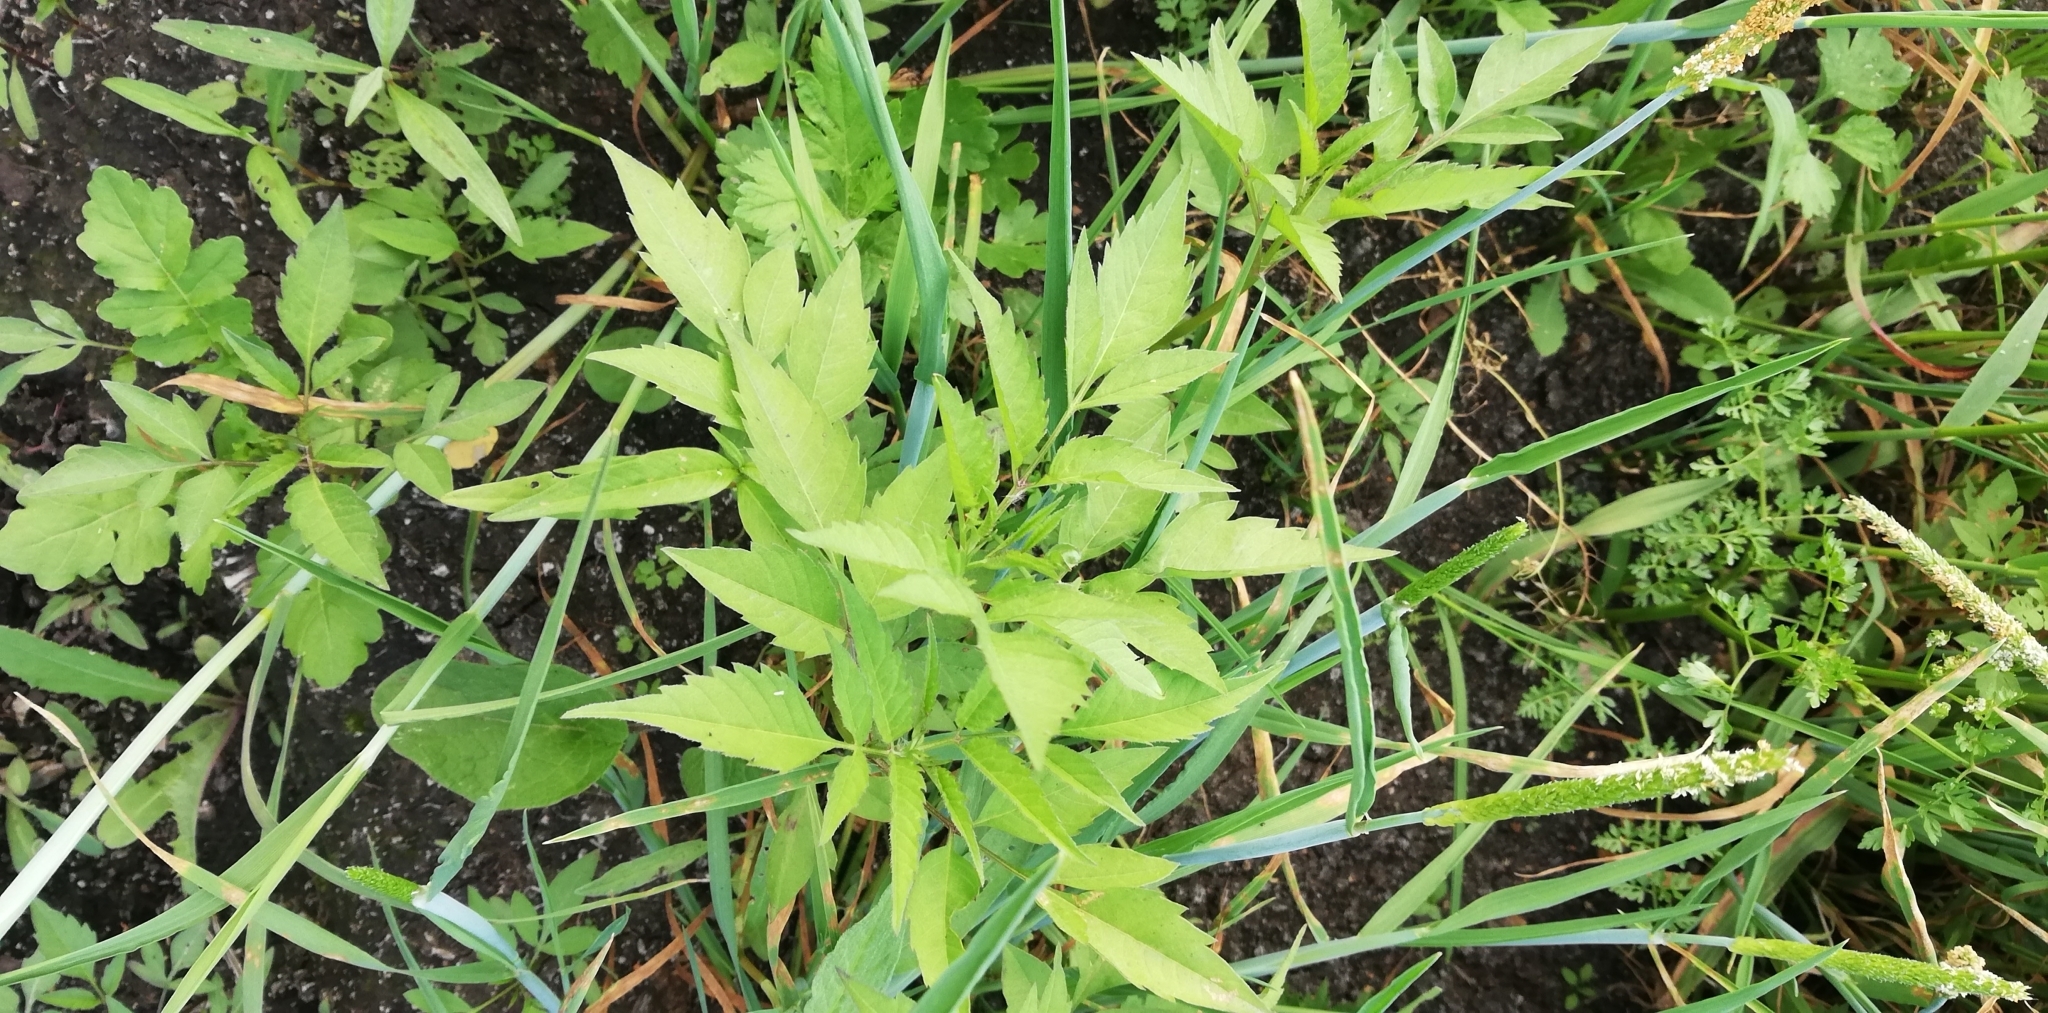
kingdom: Plantae
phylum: Tracheophyta
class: Magnoliopsida
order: Asterales
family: Asteraceae
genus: Bidens
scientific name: Bidens frondosa
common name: Beggarticks
